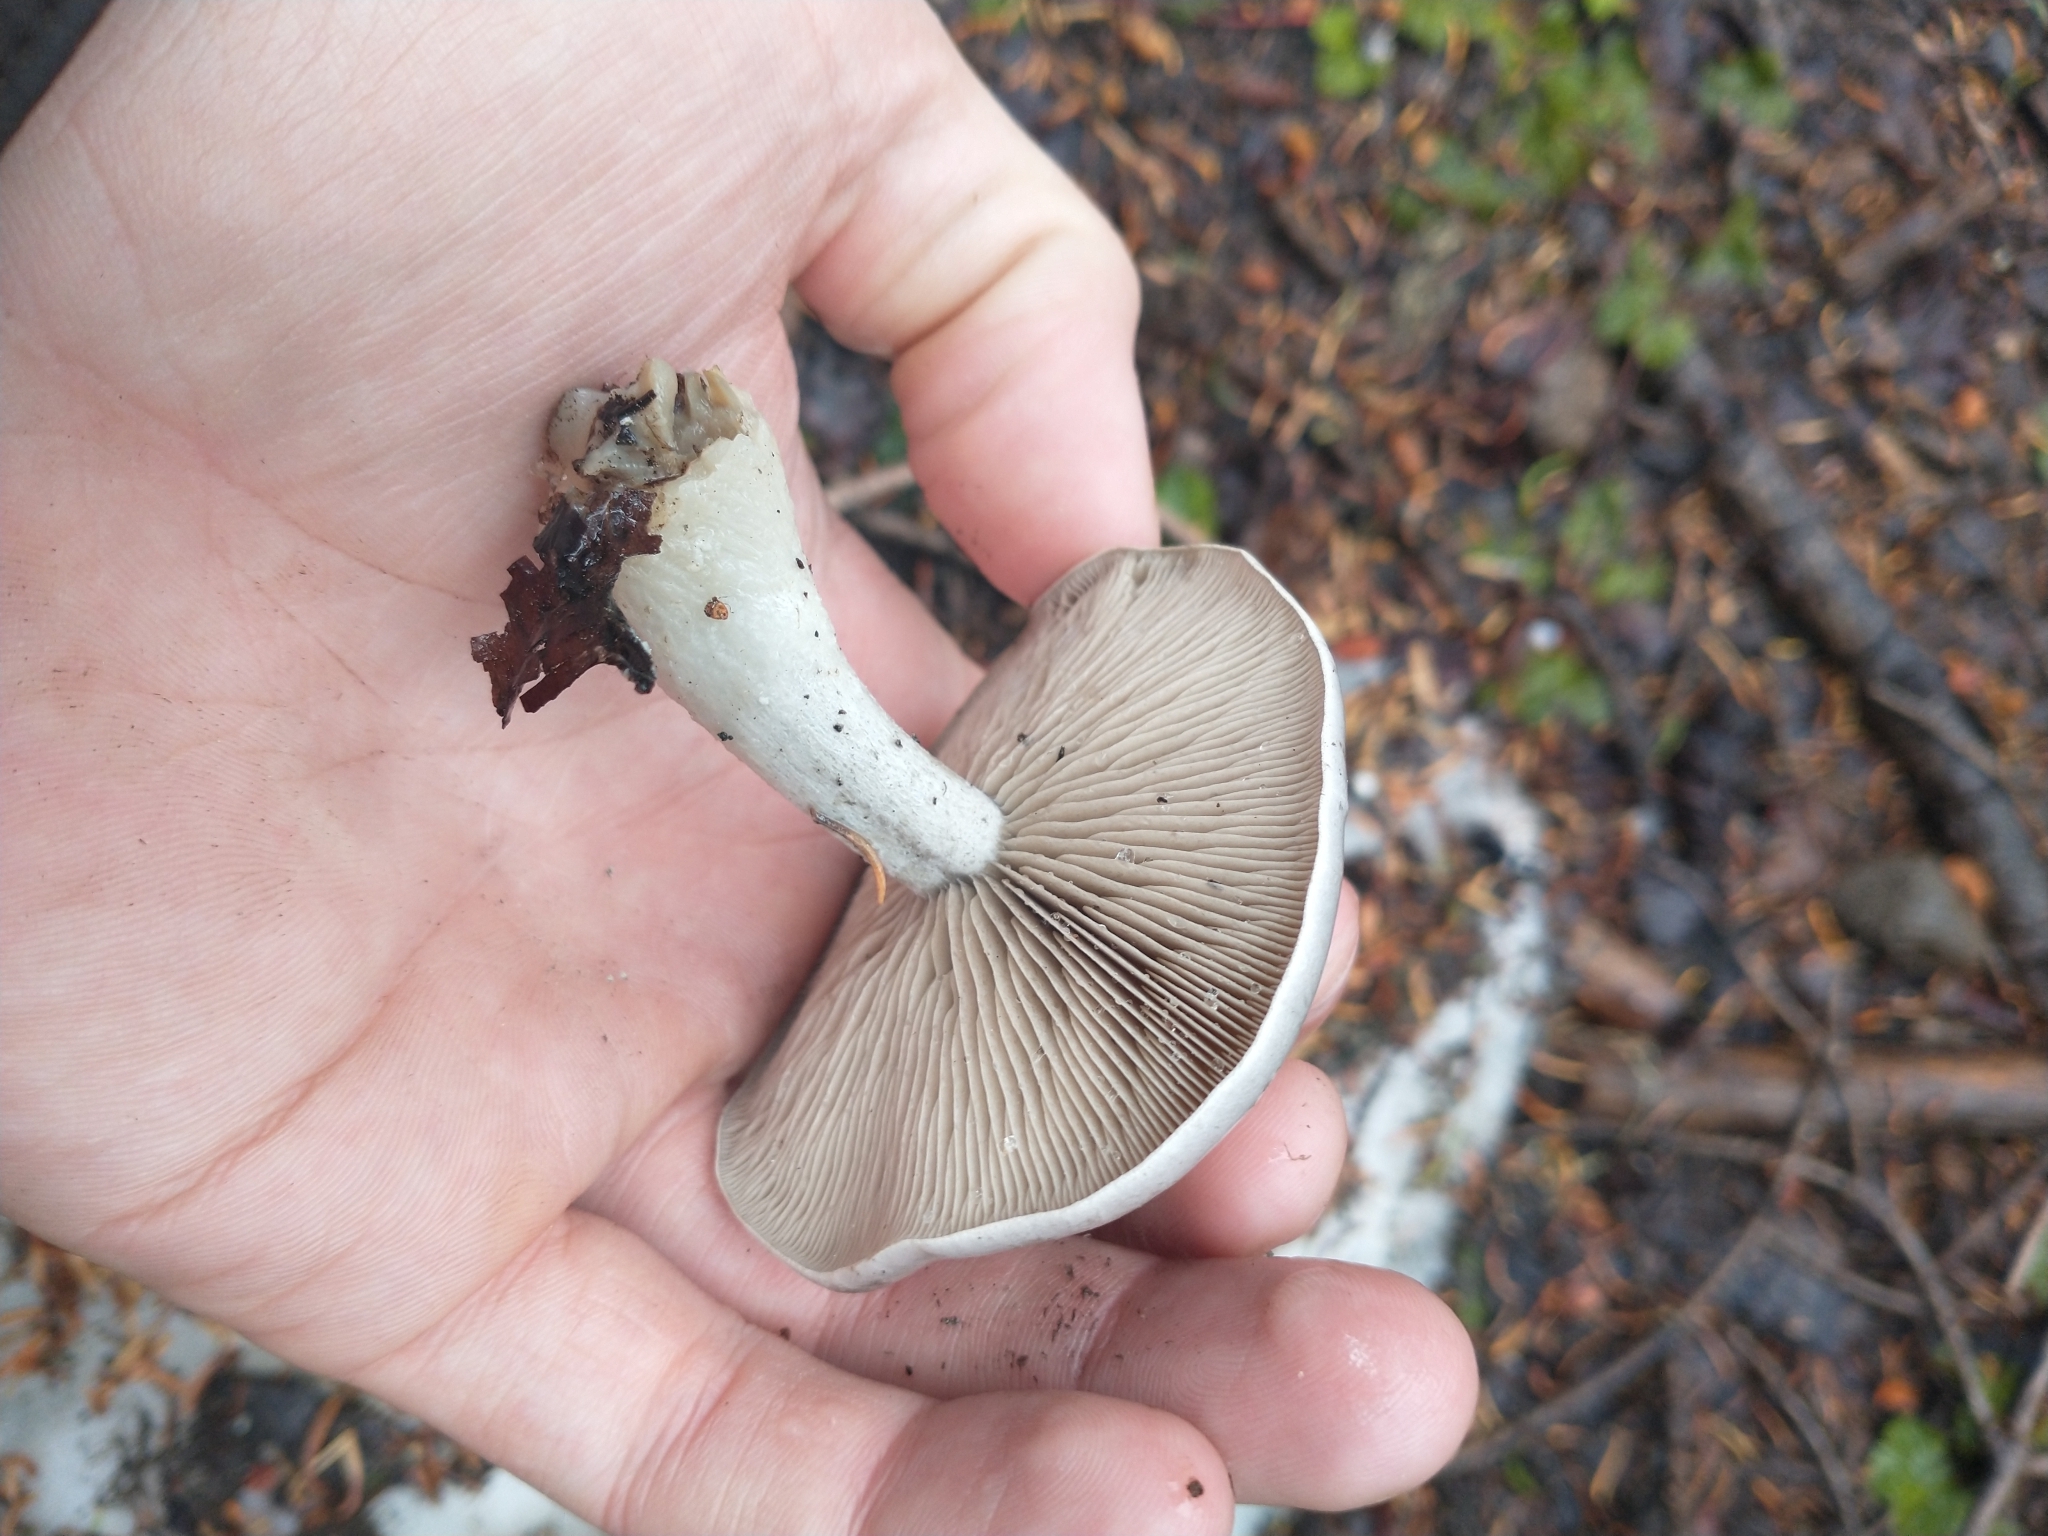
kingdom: Fungi
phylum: Basidiomycota
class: Agaricomycetes
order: Agaricales
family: Tricholomataceae
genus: Clitocybe
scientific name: Clitocybe glacialis
